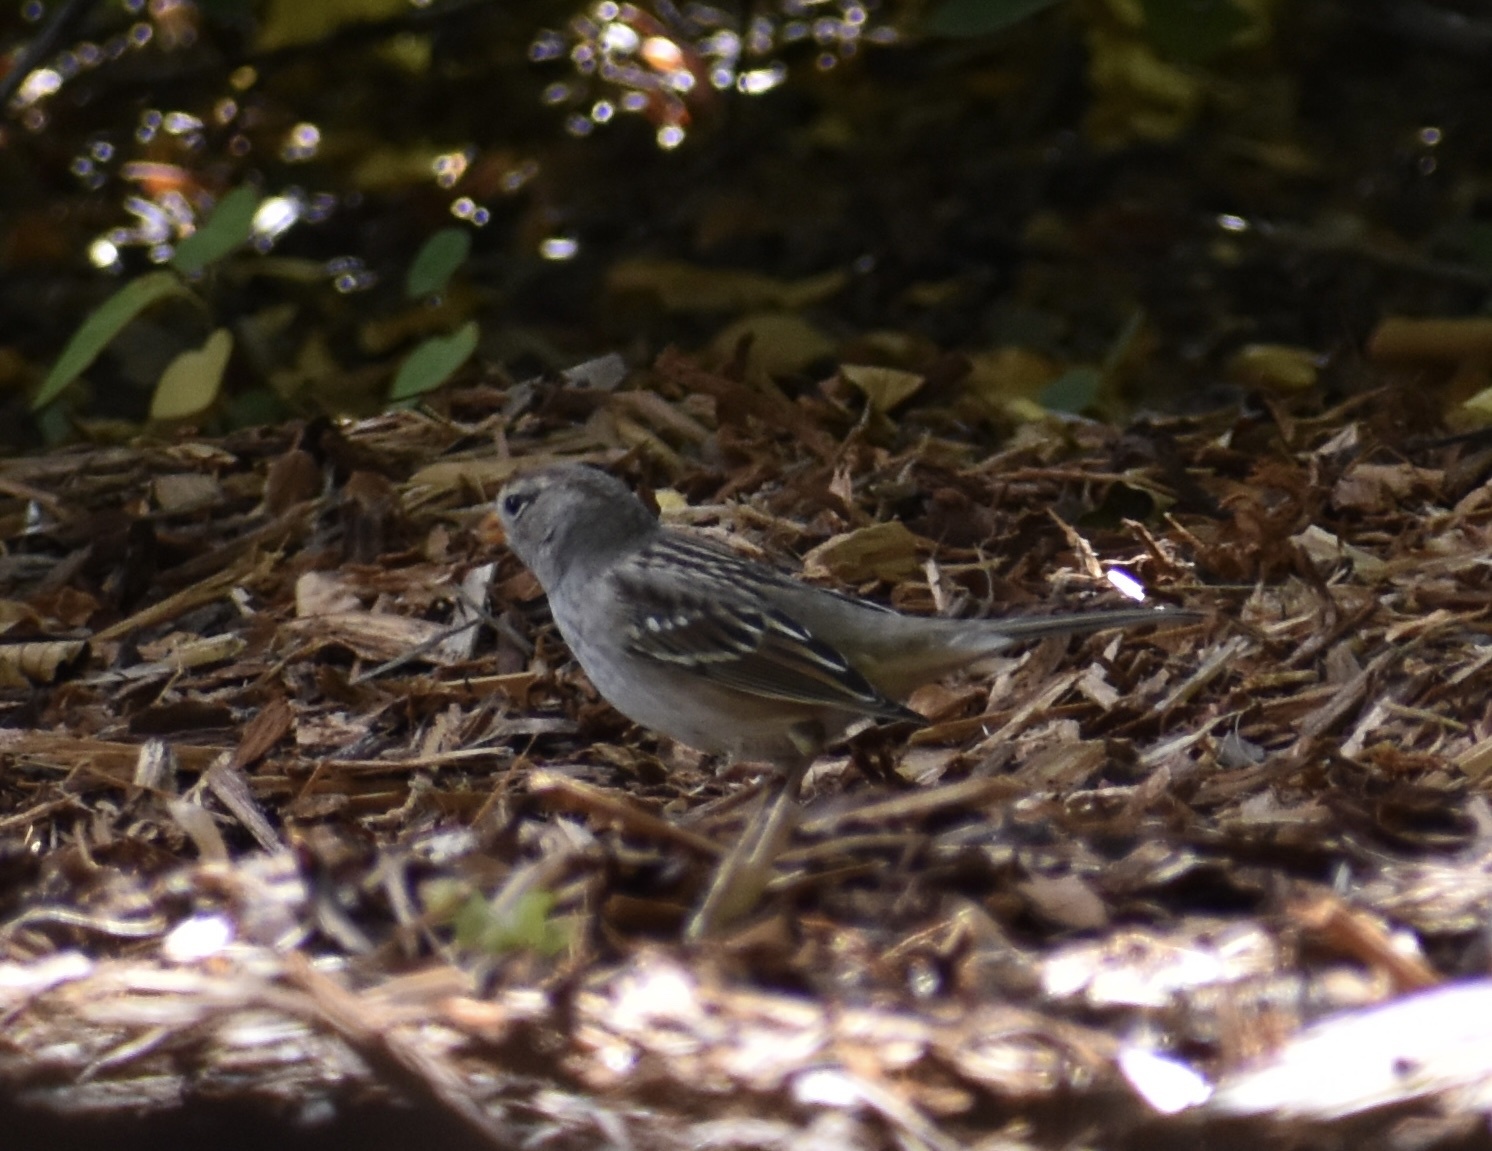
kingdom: Animalia
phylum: Chordata
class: Aves
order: Passeriformes
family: Passerellidae
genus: Zonotrichia
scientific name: Zonotrichia leucophrys
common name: White-crowned sparrow
